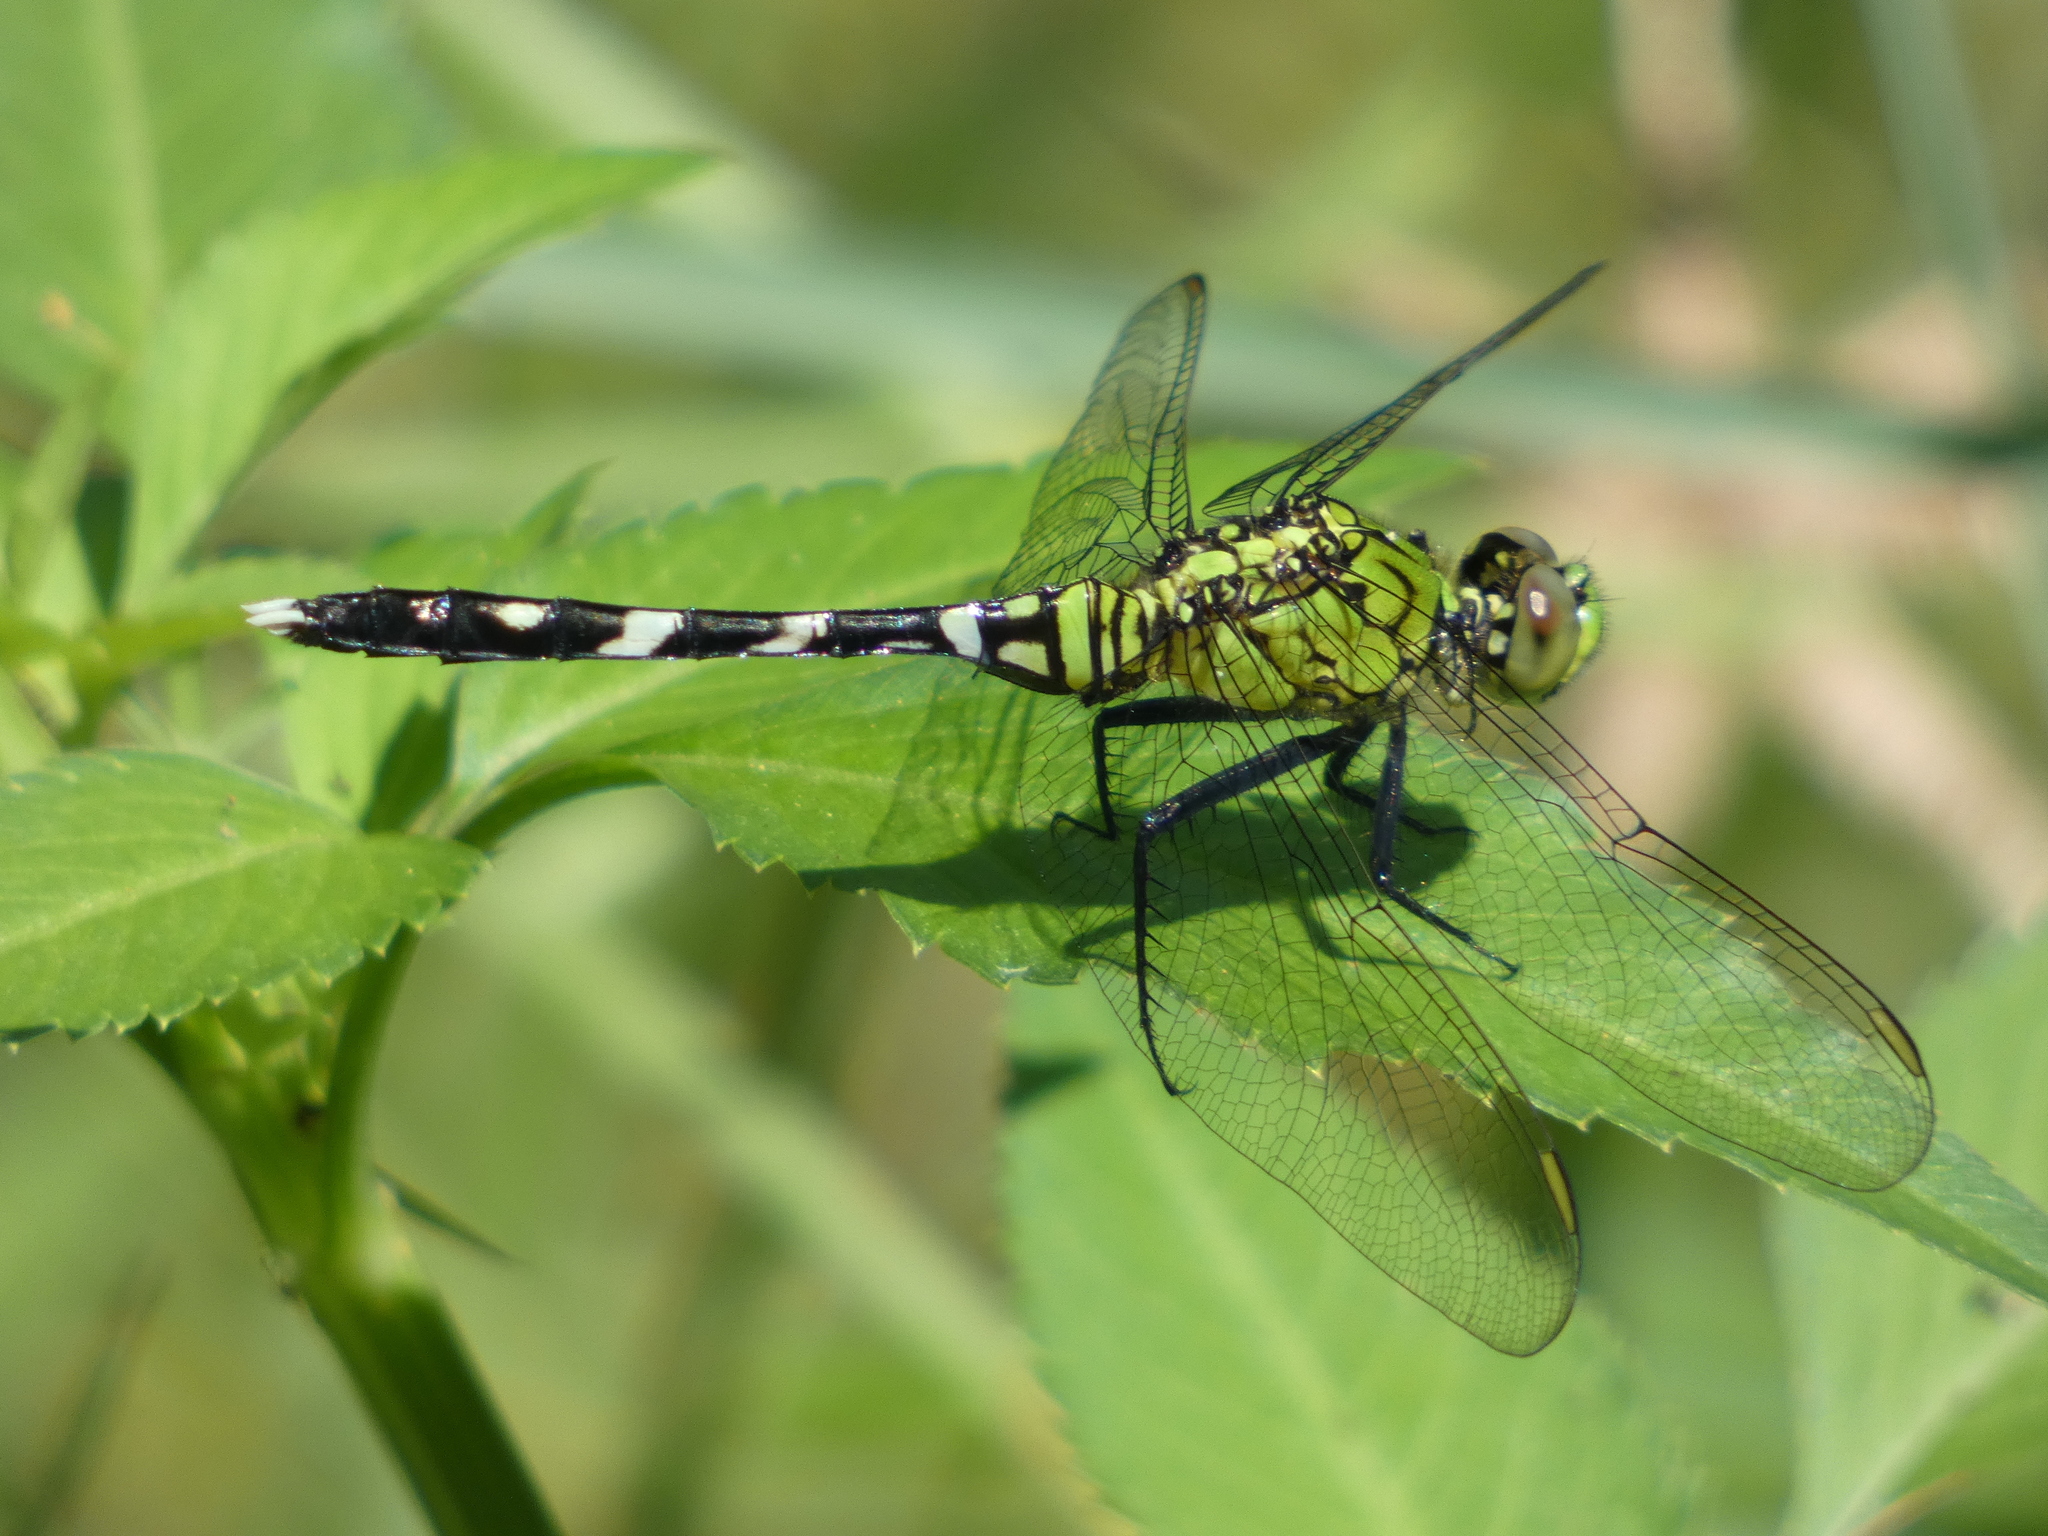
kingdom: Animalia
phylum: Arthropoda
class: Insecta
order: Odonata
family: Libellulidae
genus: Erythemis
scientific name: Erythemis simplicicollis
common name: Eastern pondhawk
